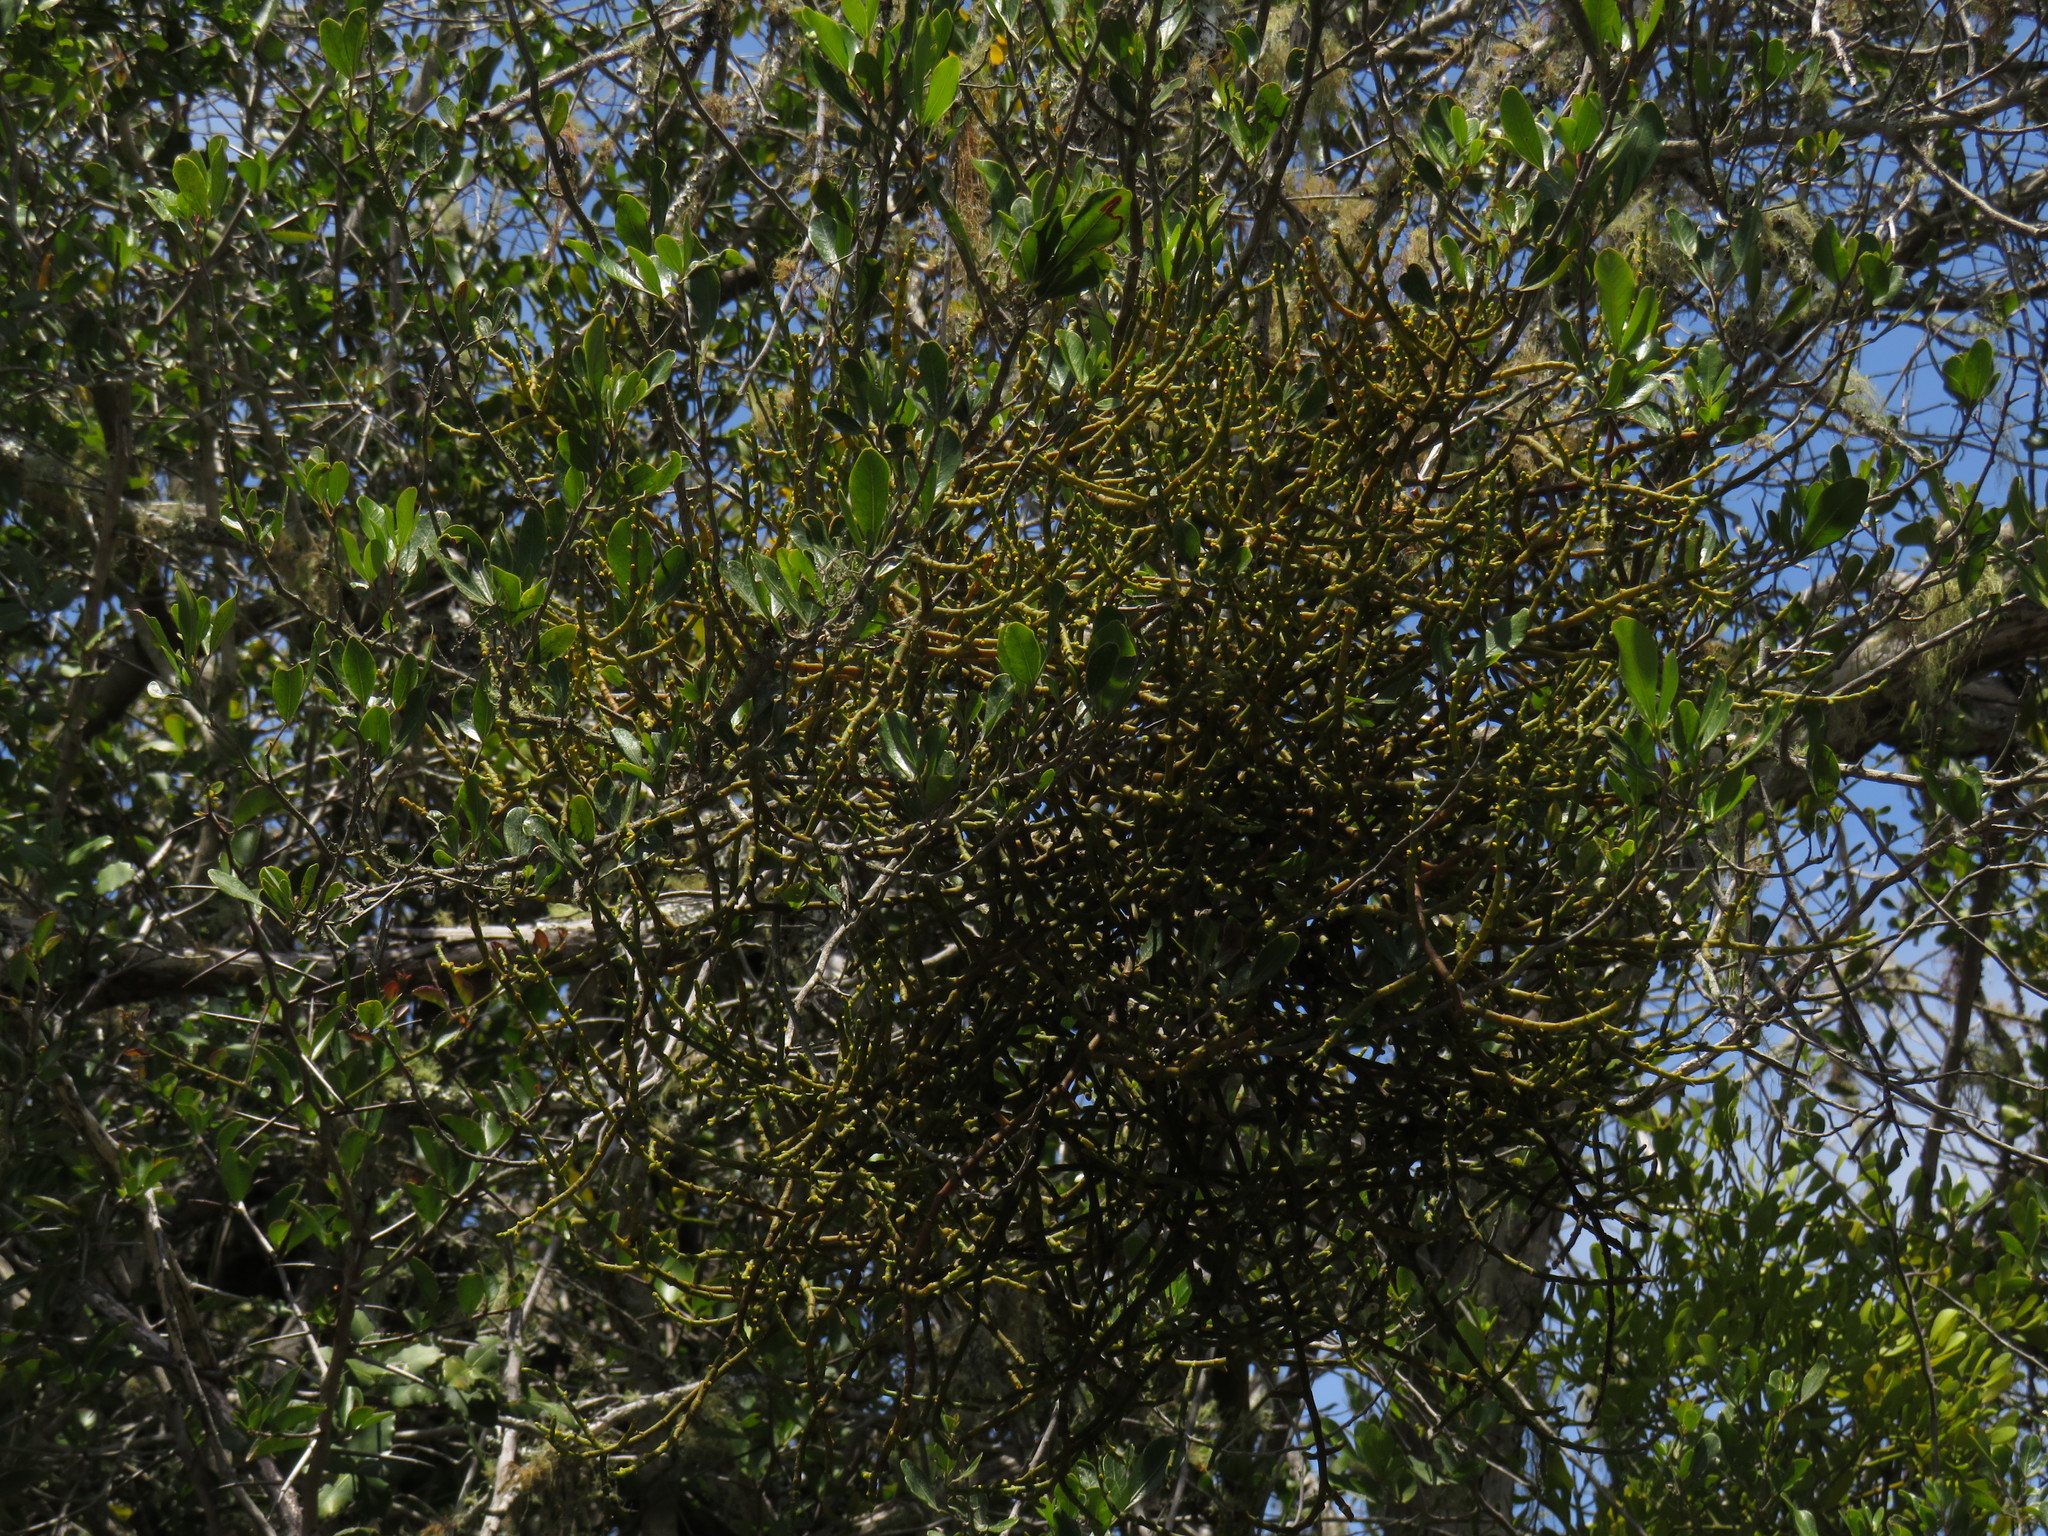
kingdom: Plantae
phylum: Tracheophyta
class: Magnoliopsida
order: Santalales
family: Viscaceae
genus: Viscum
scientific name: Viscum capense
